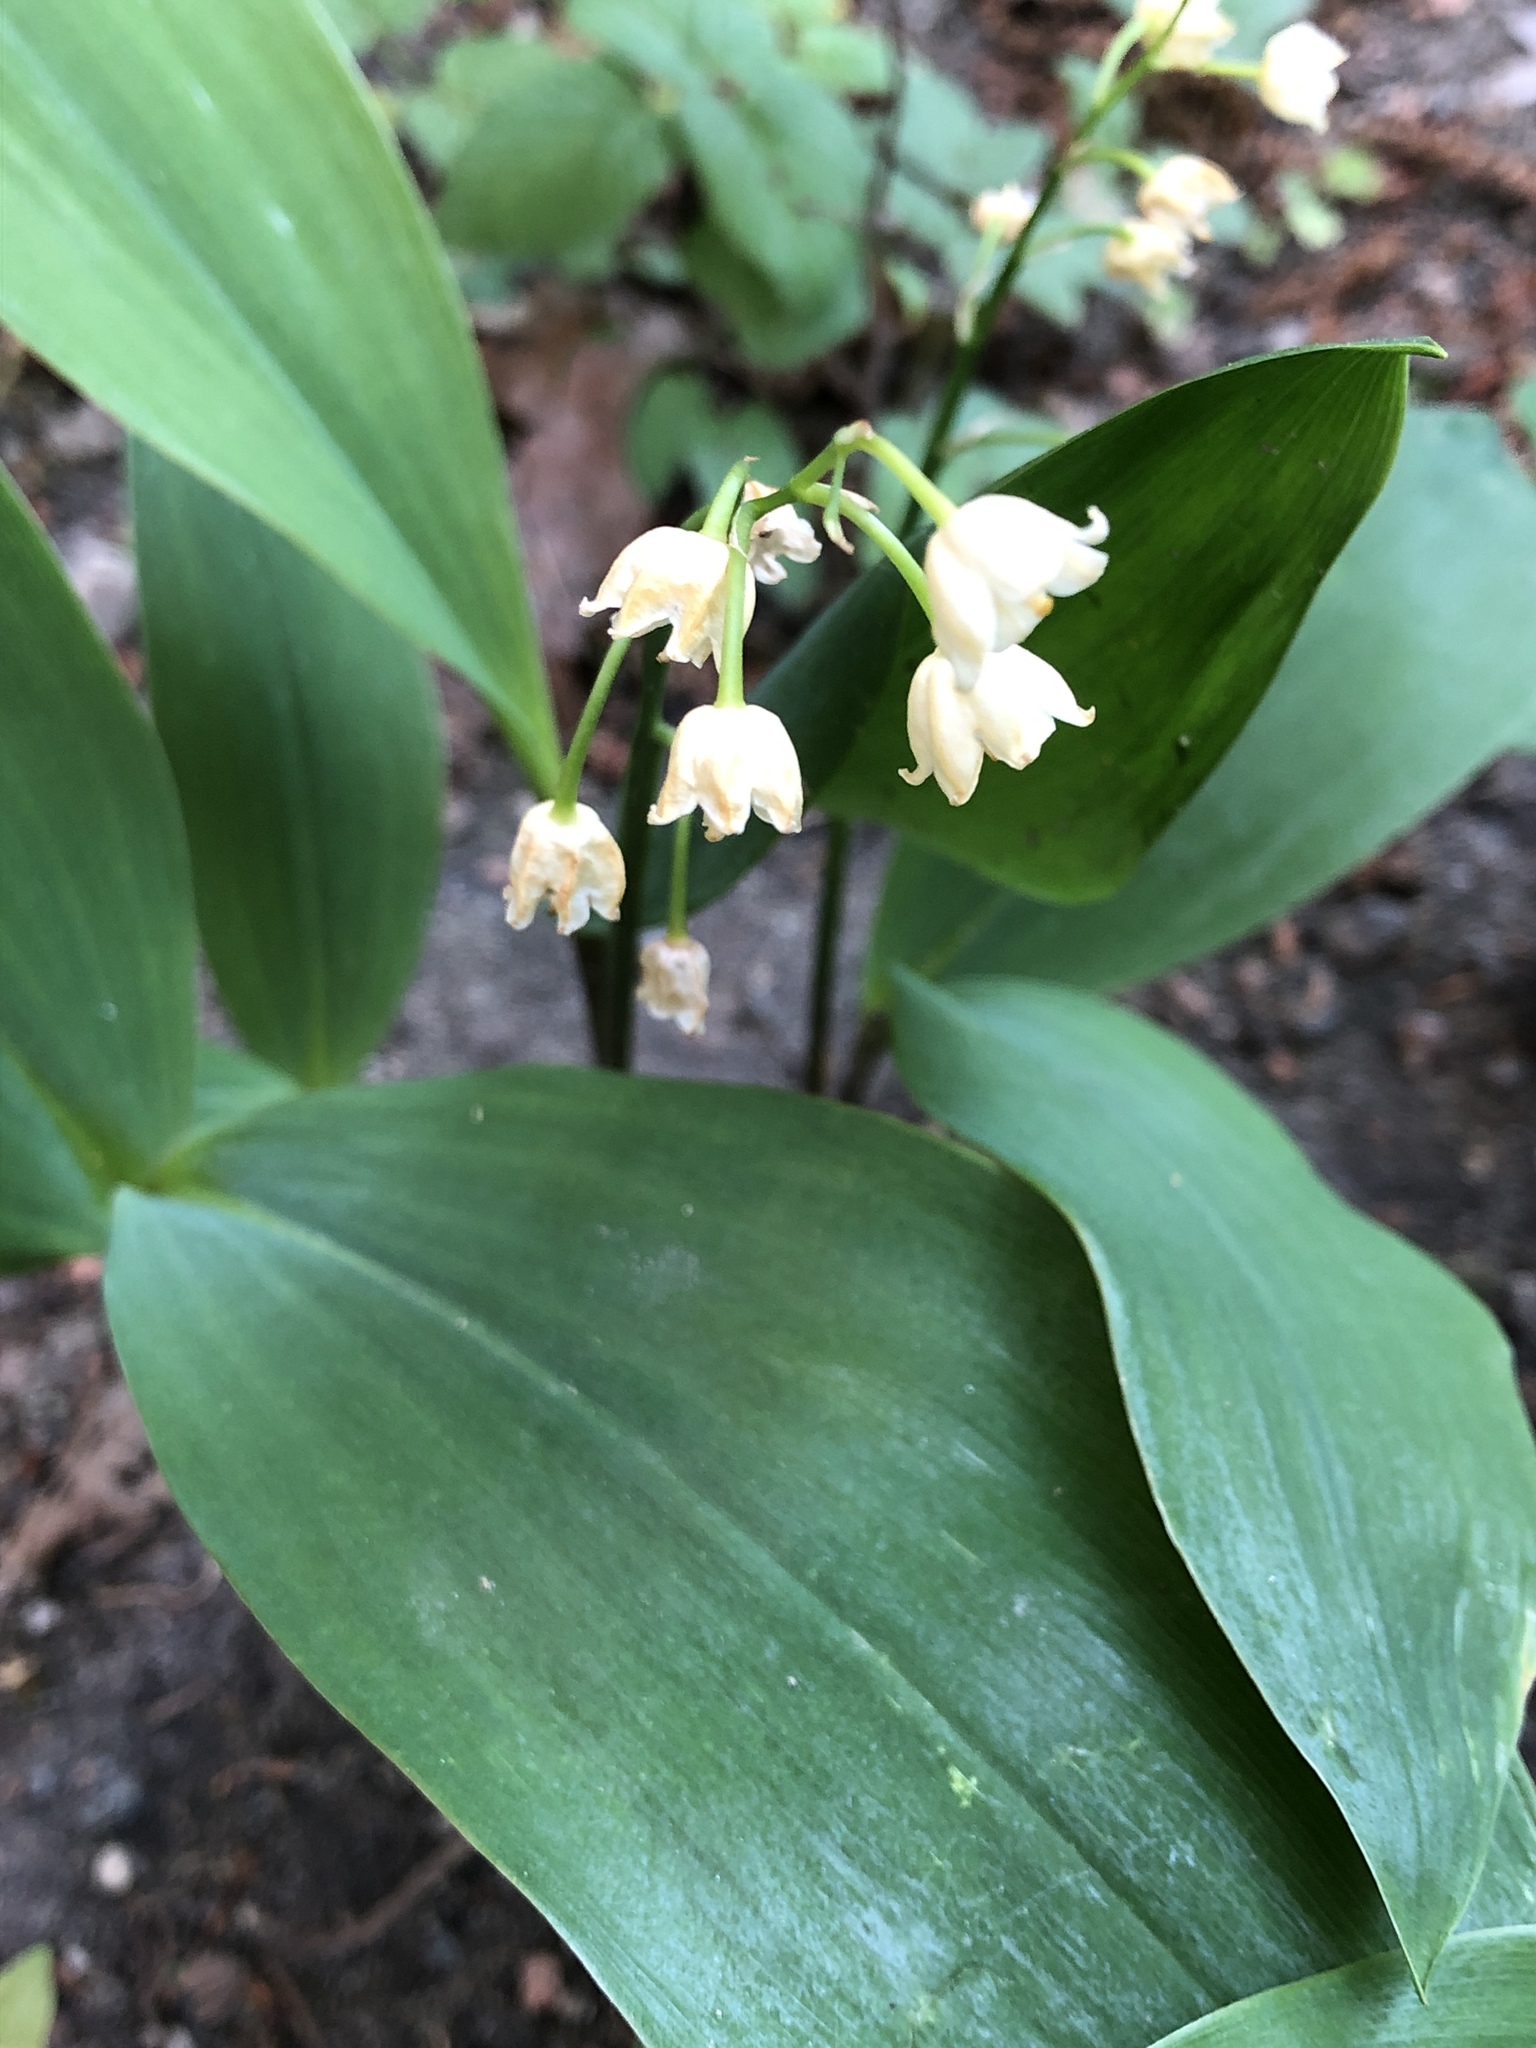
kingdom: Plantae
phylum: Tracheophyta
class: Liliopsida
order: Asparagales
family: Asparagaceae
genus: Convallaria
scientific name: Convallaria majalis
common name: Lily-of-the-valley
